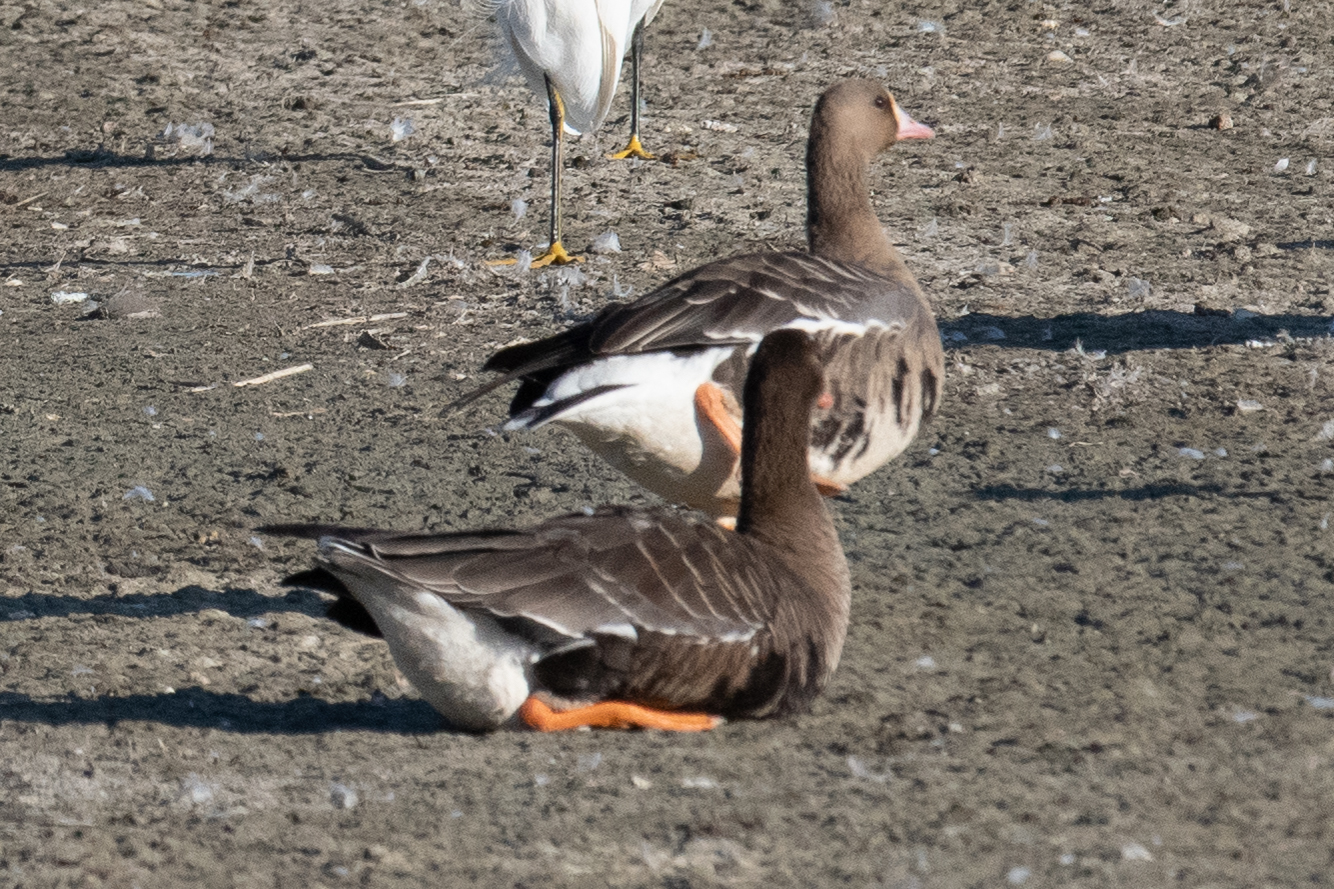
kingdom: Animalia
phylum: Chordata
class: Aves
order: Anseriformes
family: Anatidae
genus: Anser
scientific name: Anser albifrons
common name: Greater white-fronted goose
